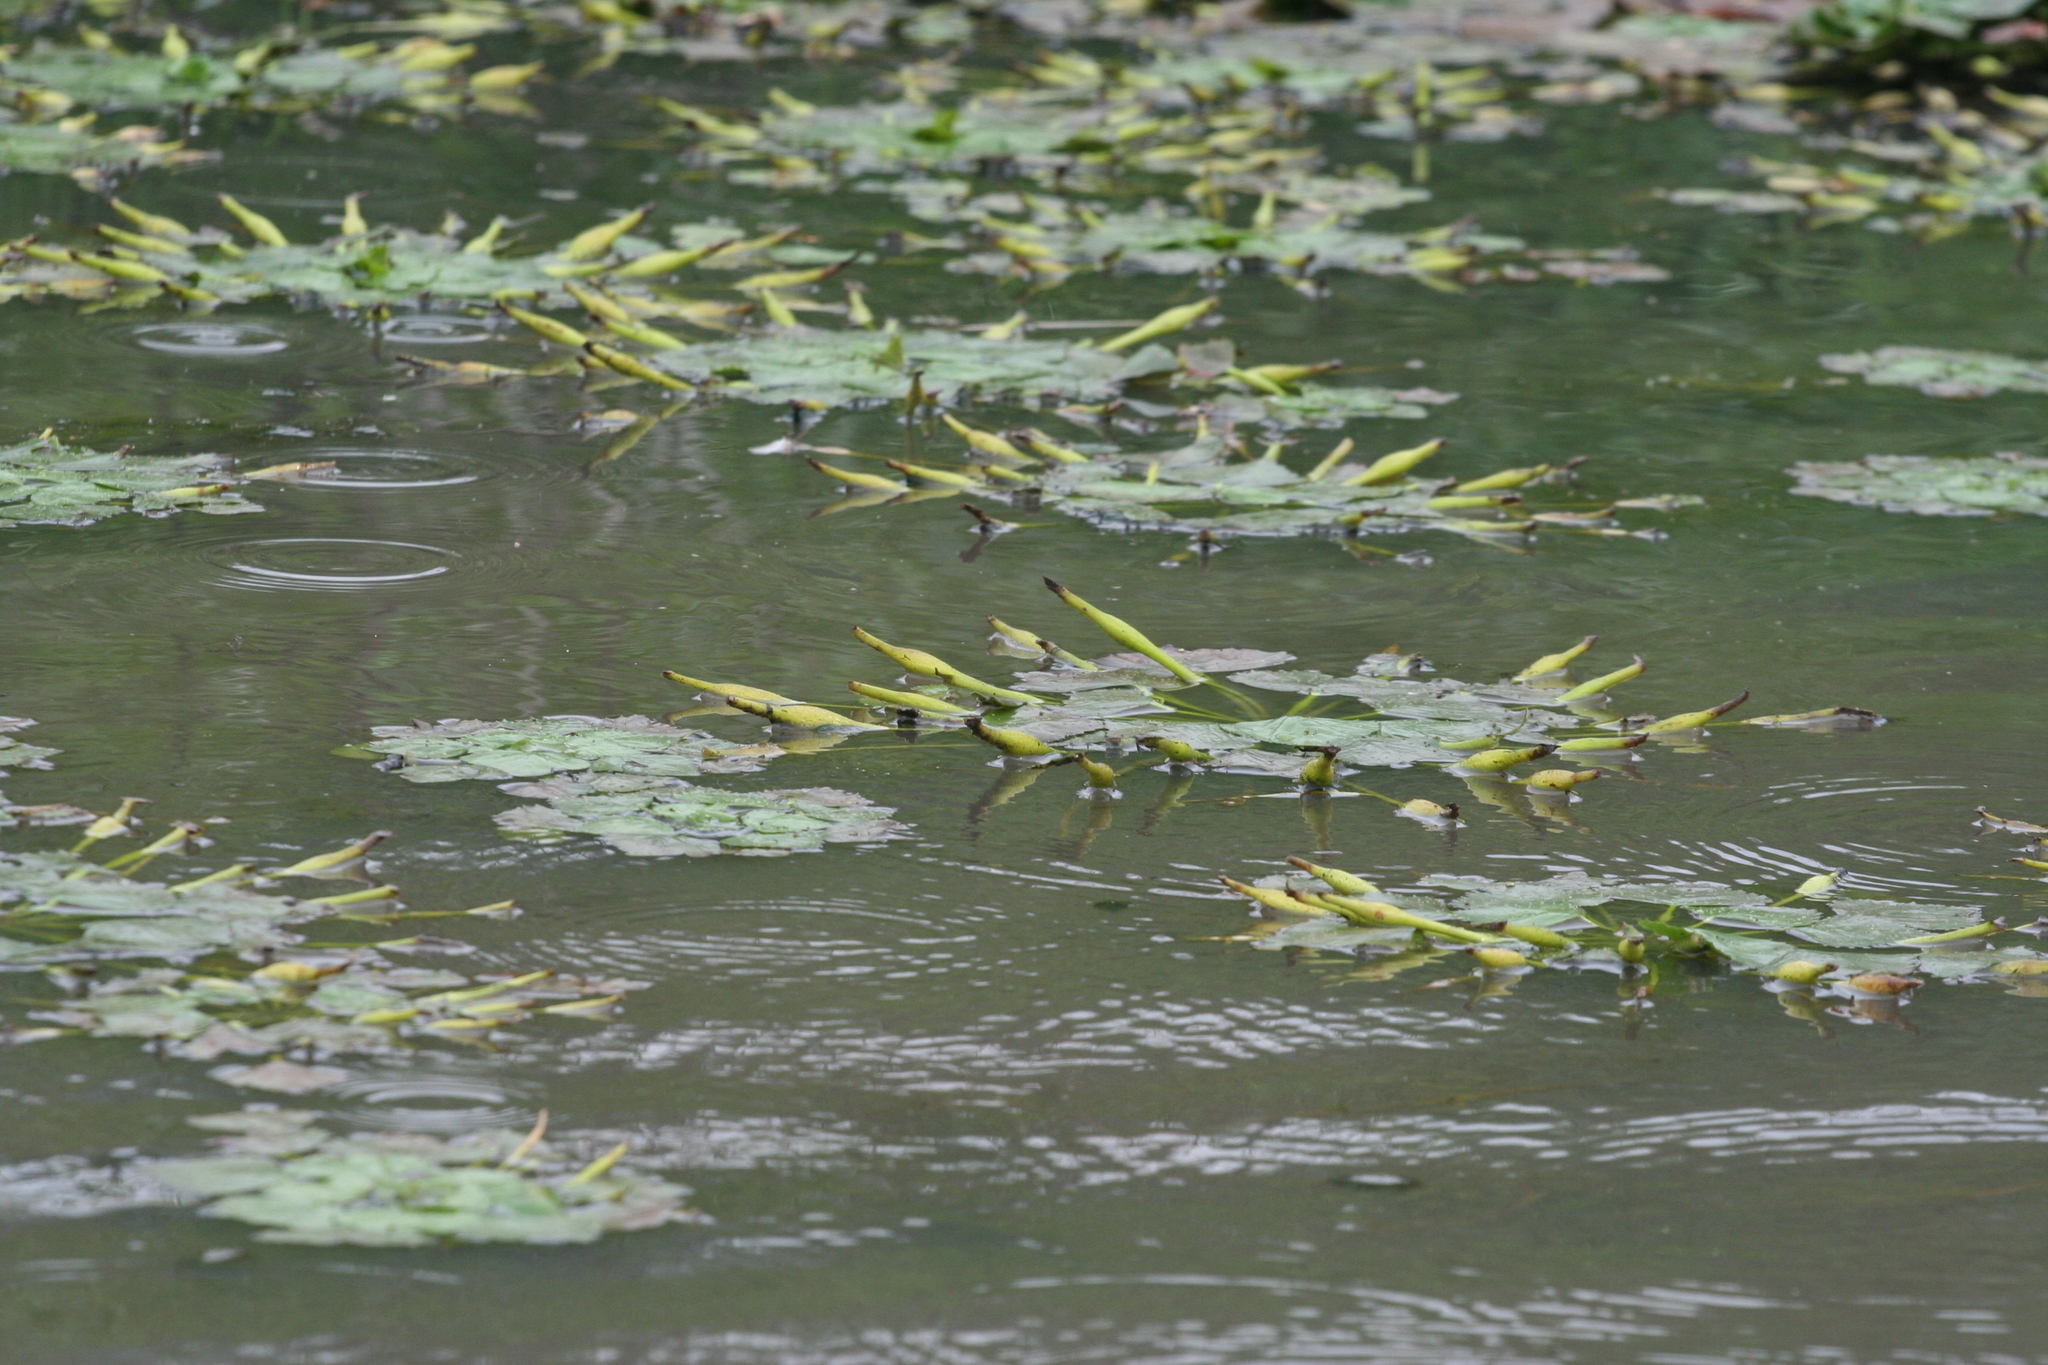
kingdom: Plantae
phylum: Tracheophyta
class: Magnoliopsida
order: Myrtales
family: Lythraceae
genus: Trapa
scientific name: Trapa natans
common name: Water chestnut
